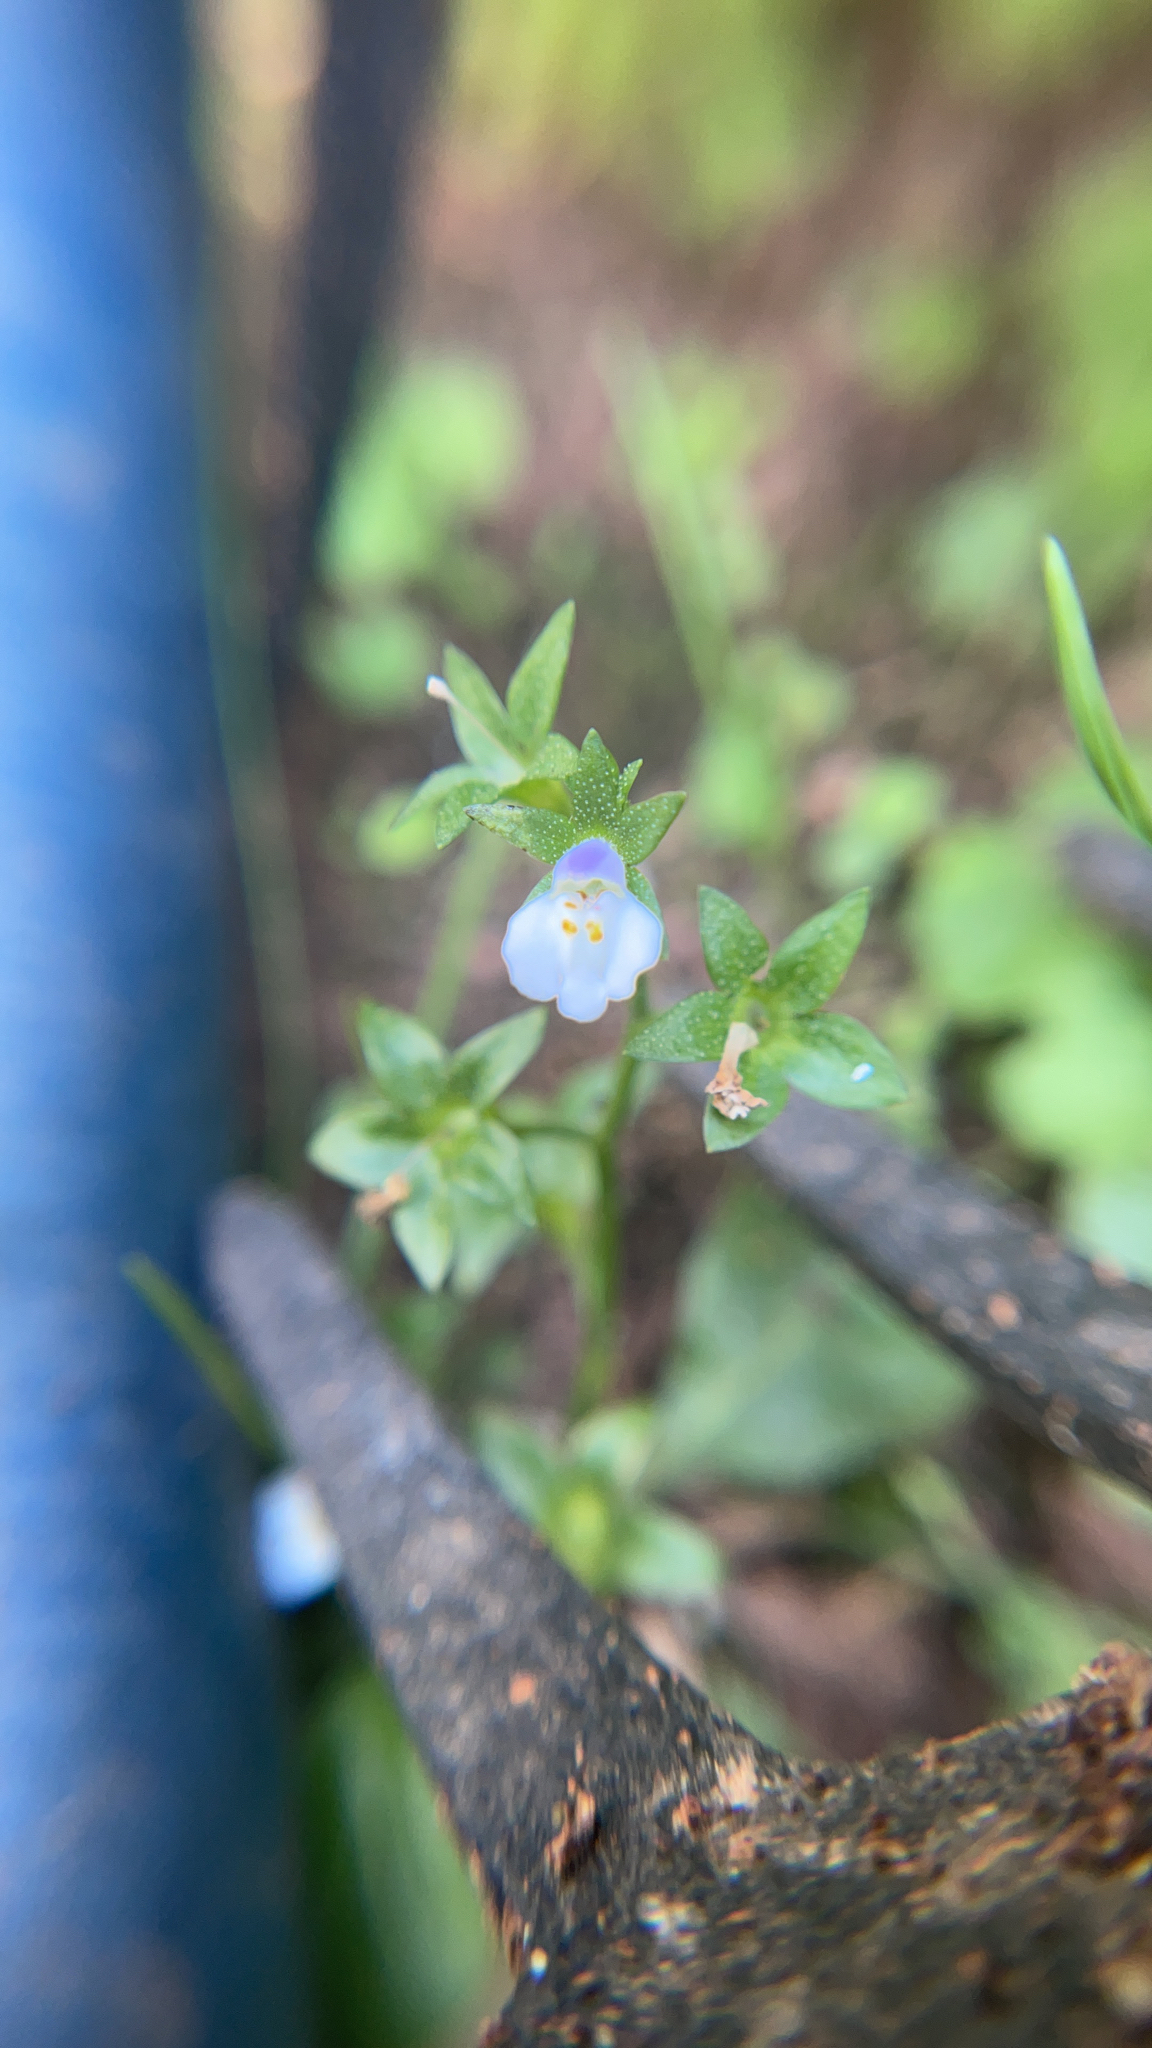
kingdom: Plantae
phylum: Tracheophyta
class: Magnoliopsida
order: Lamiales
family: Mazaceae
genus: Mazus
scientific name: Mazus pumilus
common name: Japanese mazus
